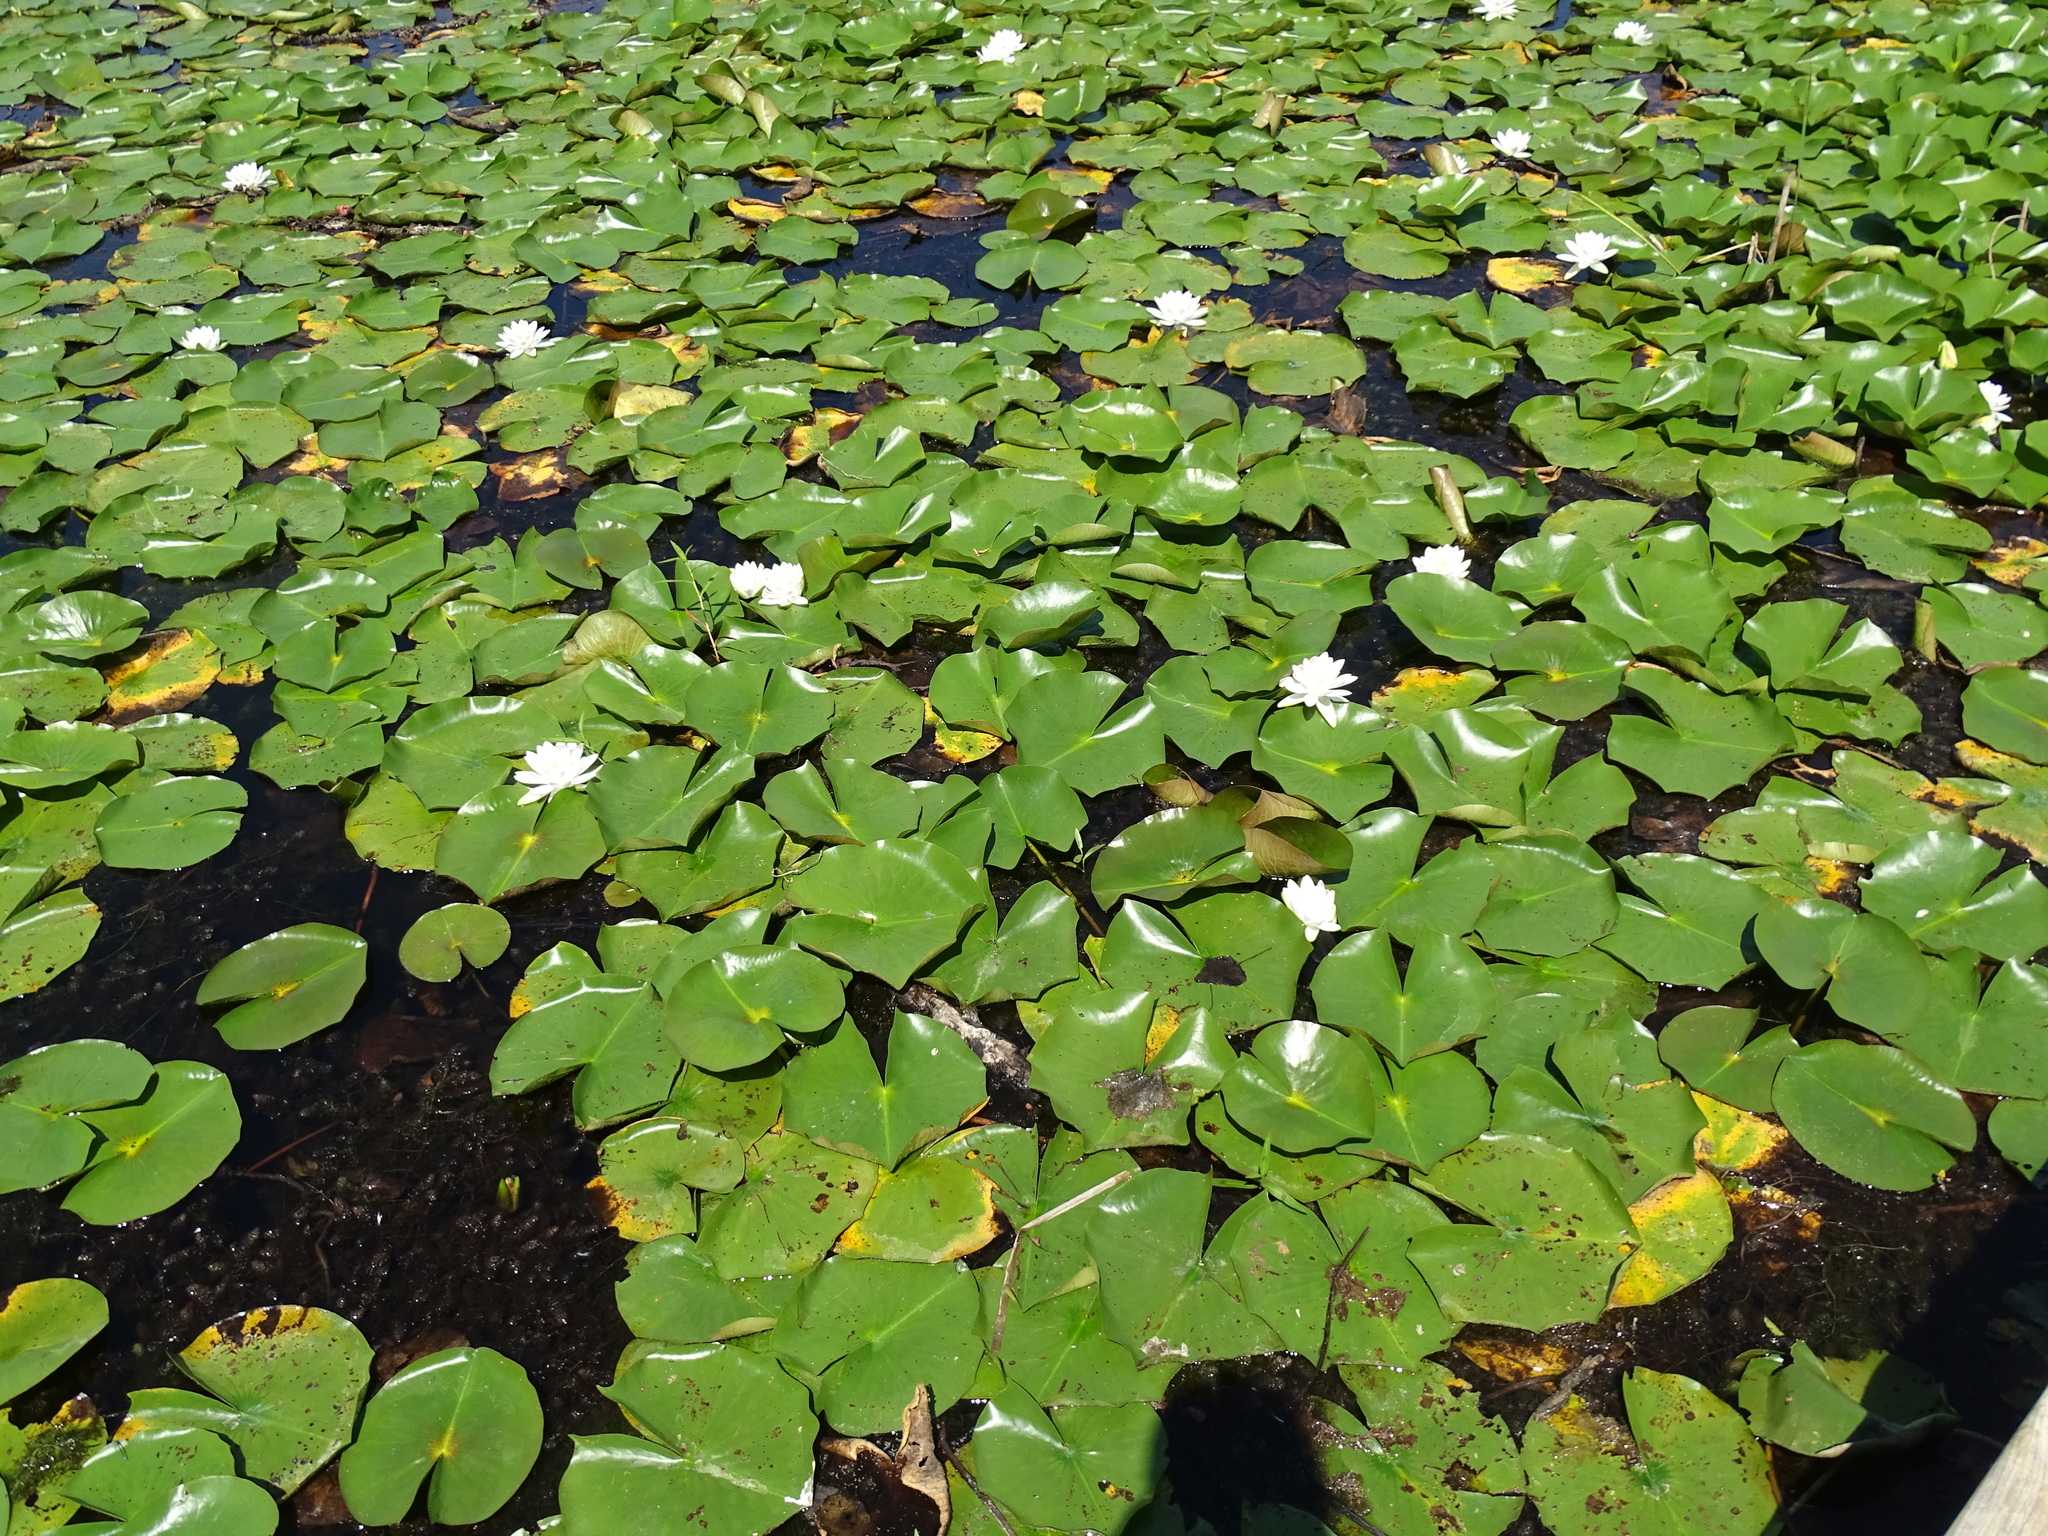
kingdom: Plantae
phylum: Tracheophyta
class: Magnoliopsida
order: Nymphaeales
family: Nymphaeaceae
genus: Nymphaea
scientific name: Nymphaea odorata
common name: Fragrant water-lily
